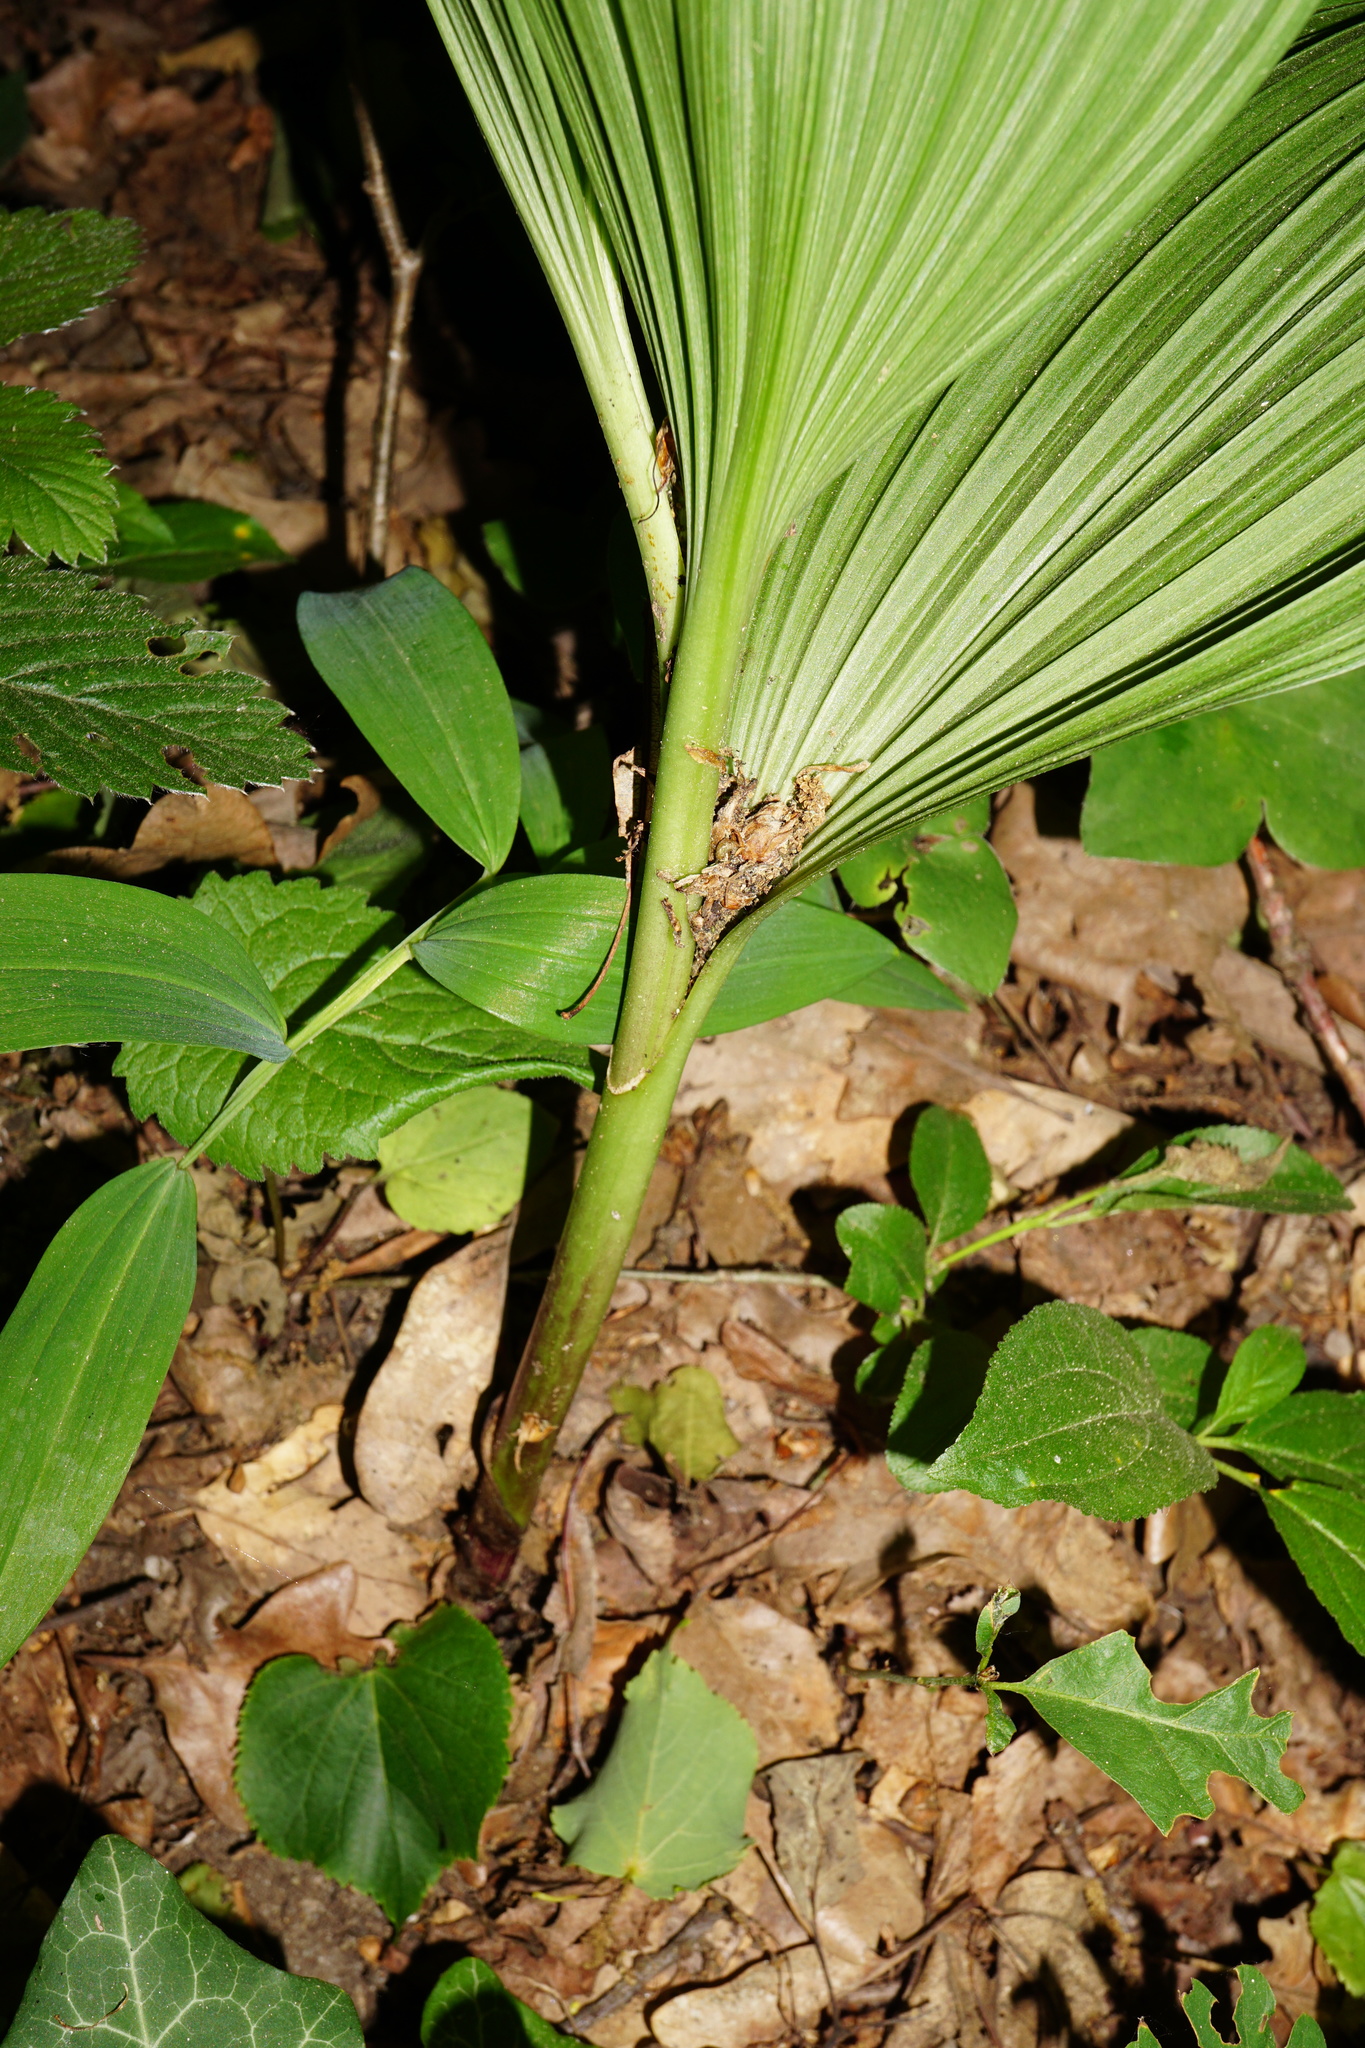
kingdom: Plantae
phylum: Tracheophyta
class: Liliopsida
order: Liliales
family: Melanthiaceae
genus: Veratrum
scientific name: Veratrum nigrum
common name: Black veratrum
